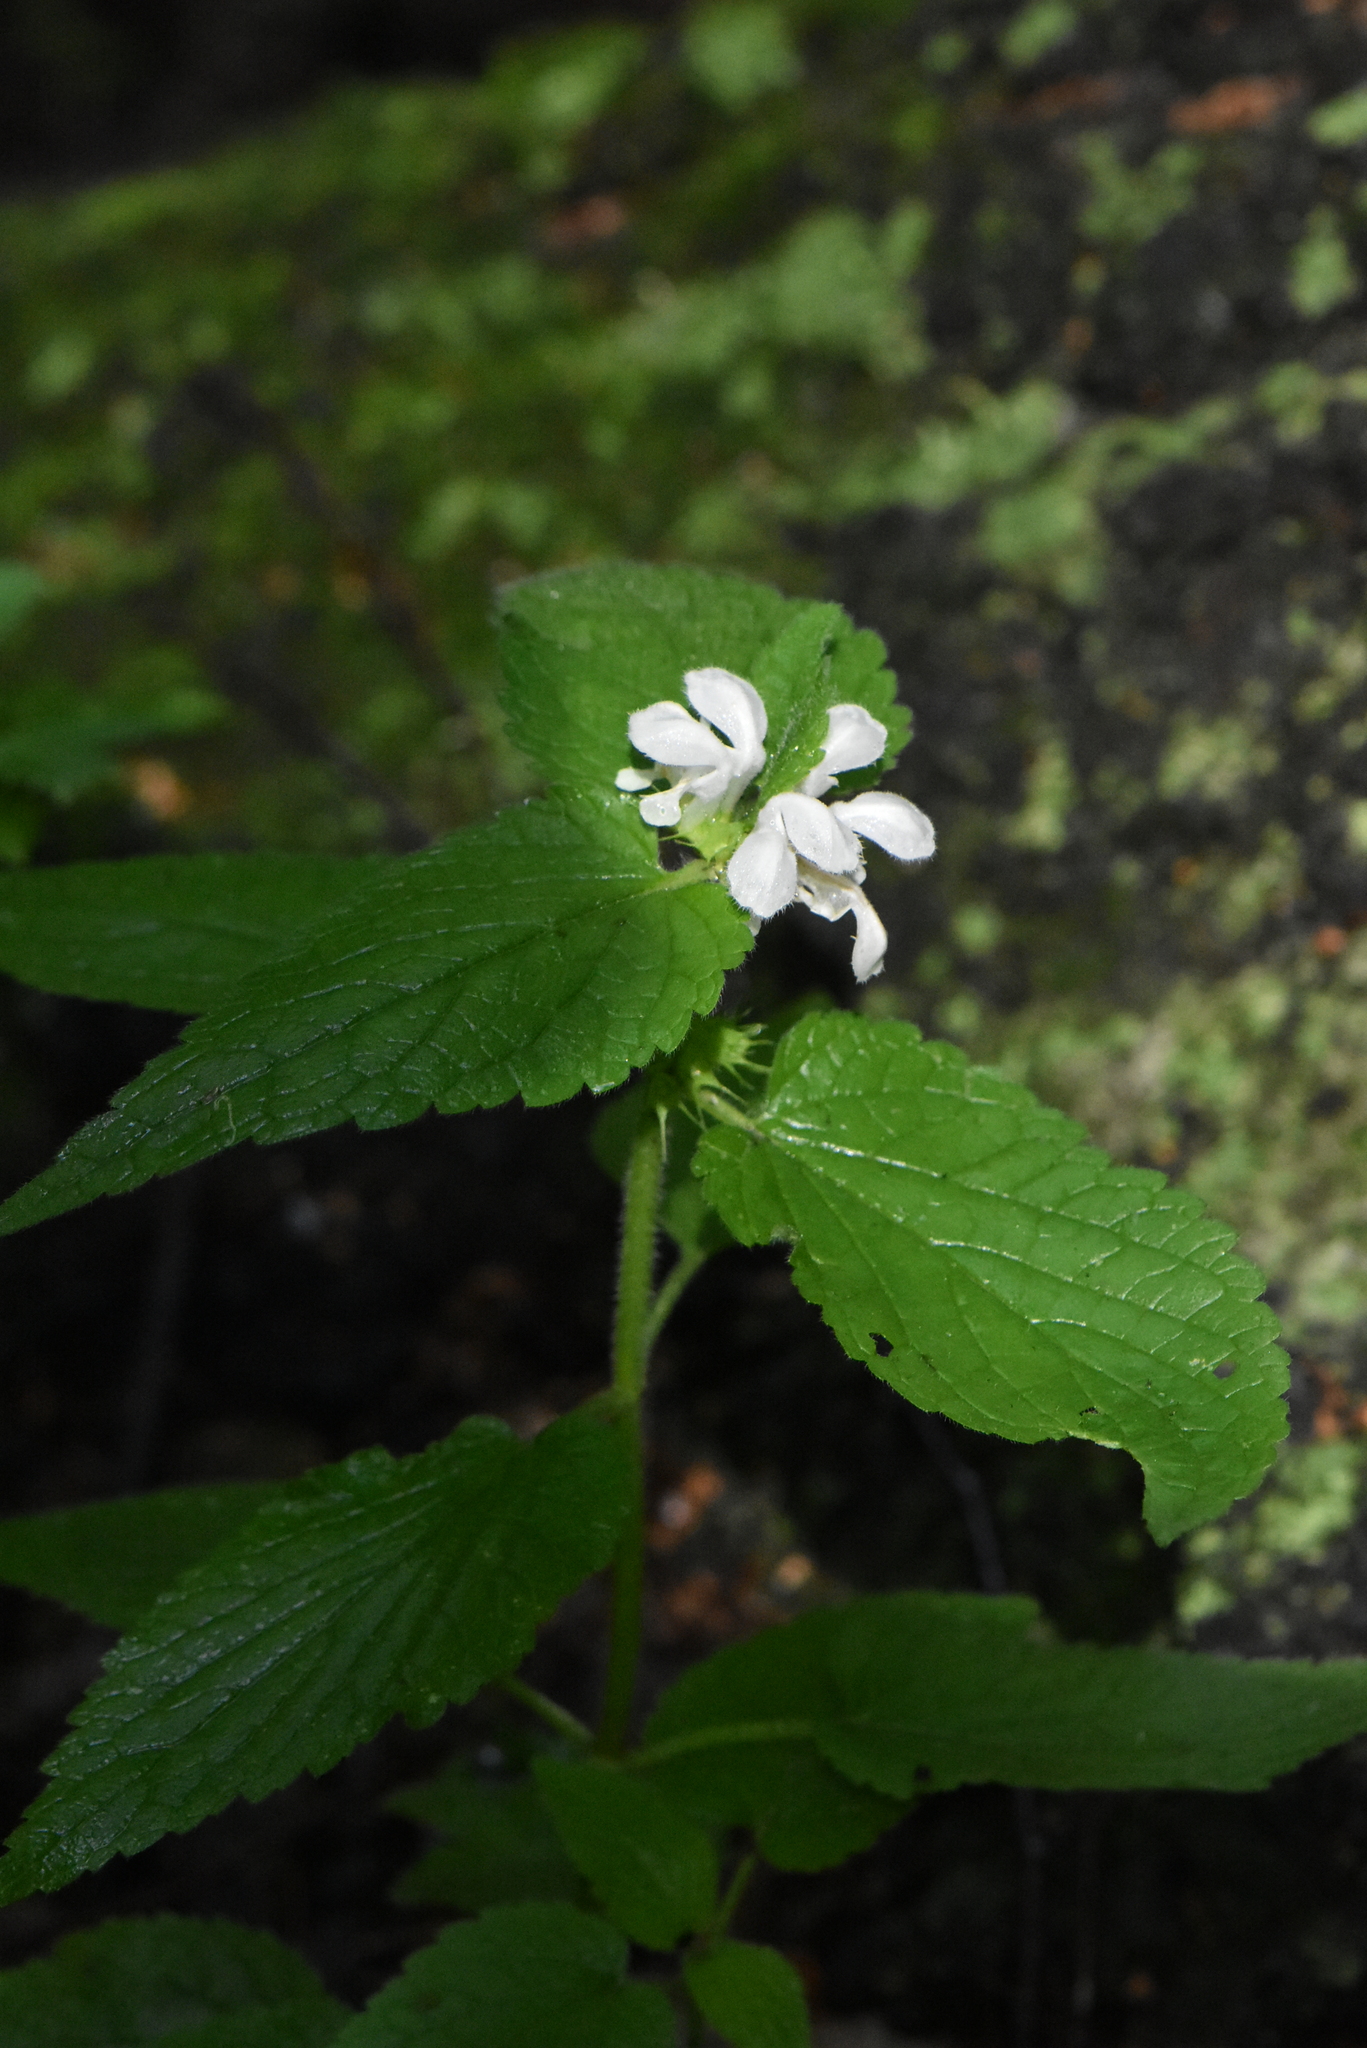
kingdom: Plantae
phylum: Tracheophyta
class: Magnoliopsida
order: Lamiales
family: Lamiaceae
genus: Lamium
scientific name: Lamium album
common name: White dead-nettle
